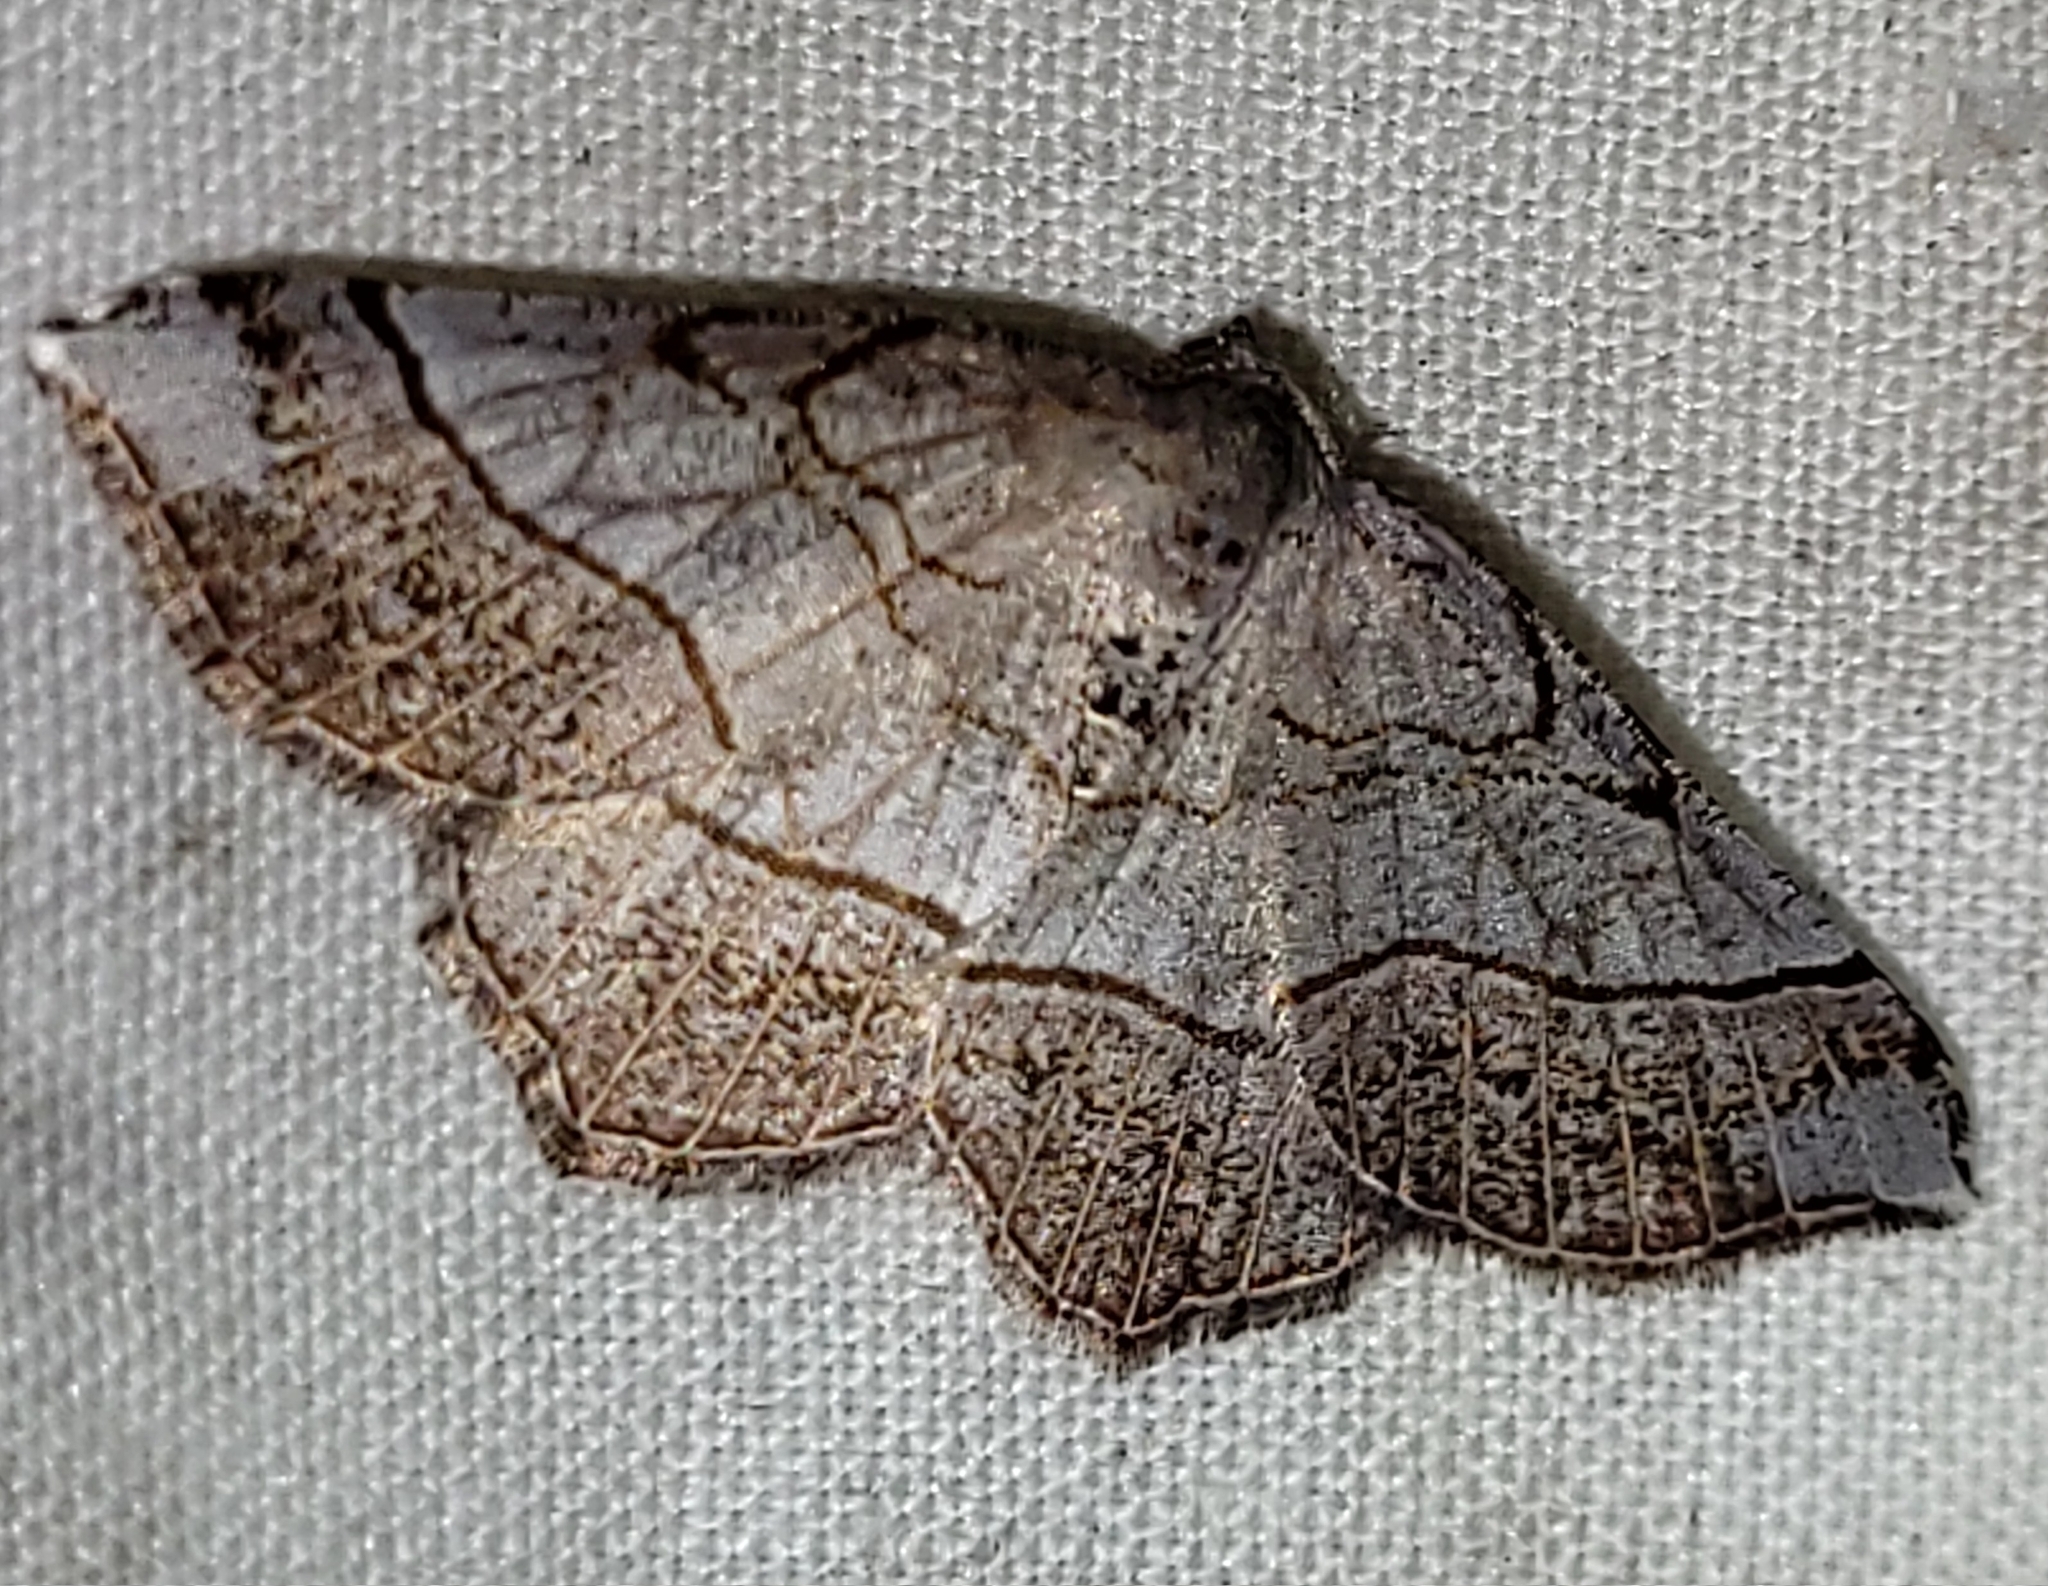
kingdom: Animalia
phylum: Arthropoda
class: Insecta
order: Lepidoptera
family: Geometridae
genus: Eumacaria
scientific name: Eumacaria madopata
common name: Brown-bordered geometer
